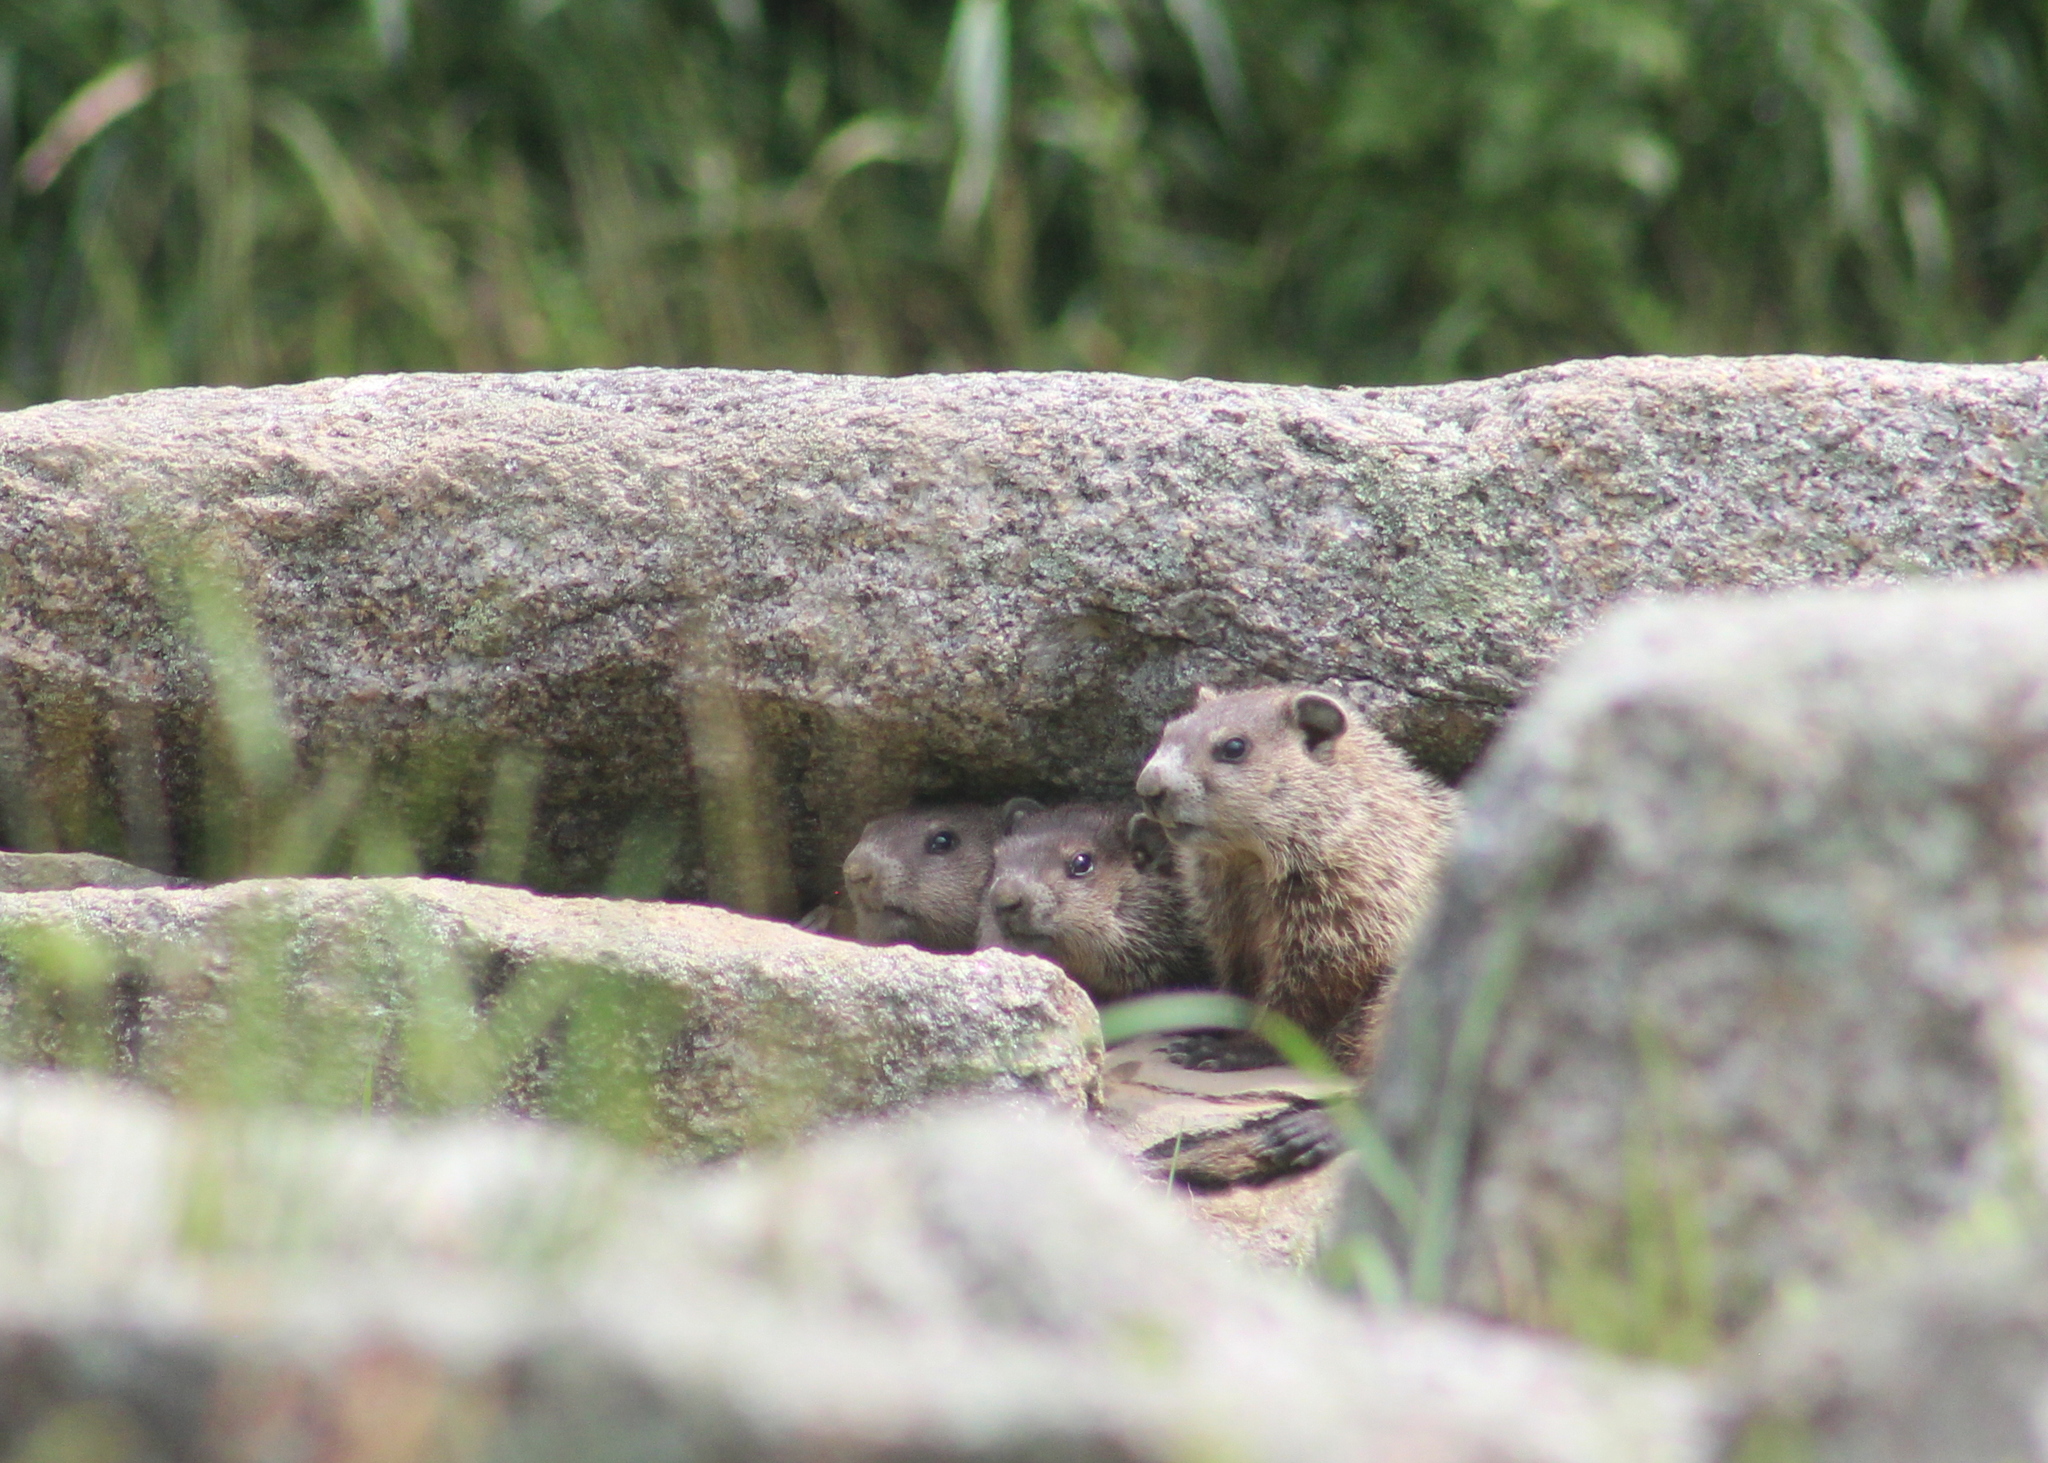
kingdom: Animalia
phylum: Chordata
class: Mammalia
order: Rodentia
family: Sciuridae
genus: Marmota
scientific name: Marmota monax
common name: Groundhog
